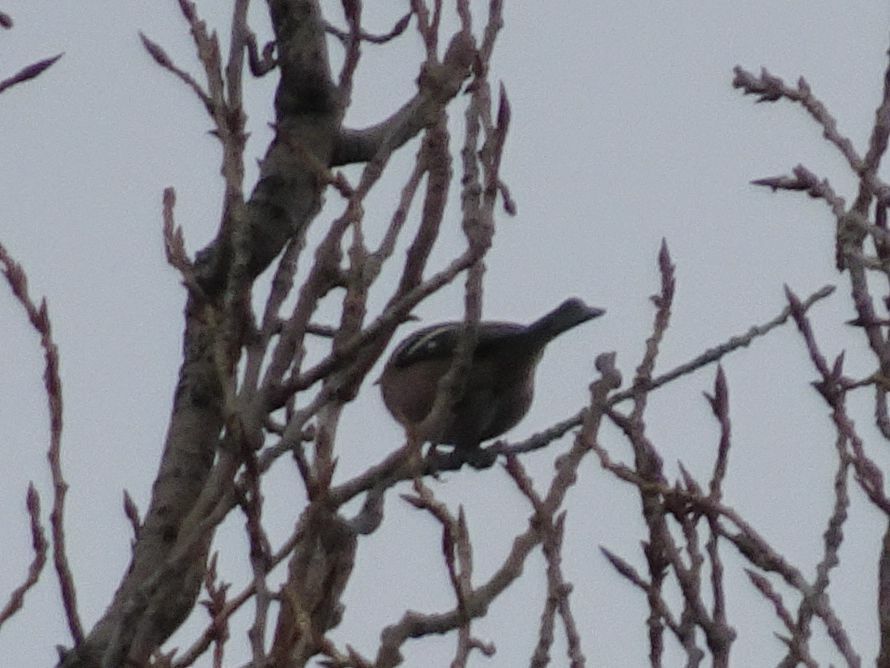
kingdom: Animalia
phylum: Chordata
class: Aves
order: Passeriformes
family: Fringillidae
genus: Fringilla
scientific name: Fringilla coelebs
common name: Common chaffinch
